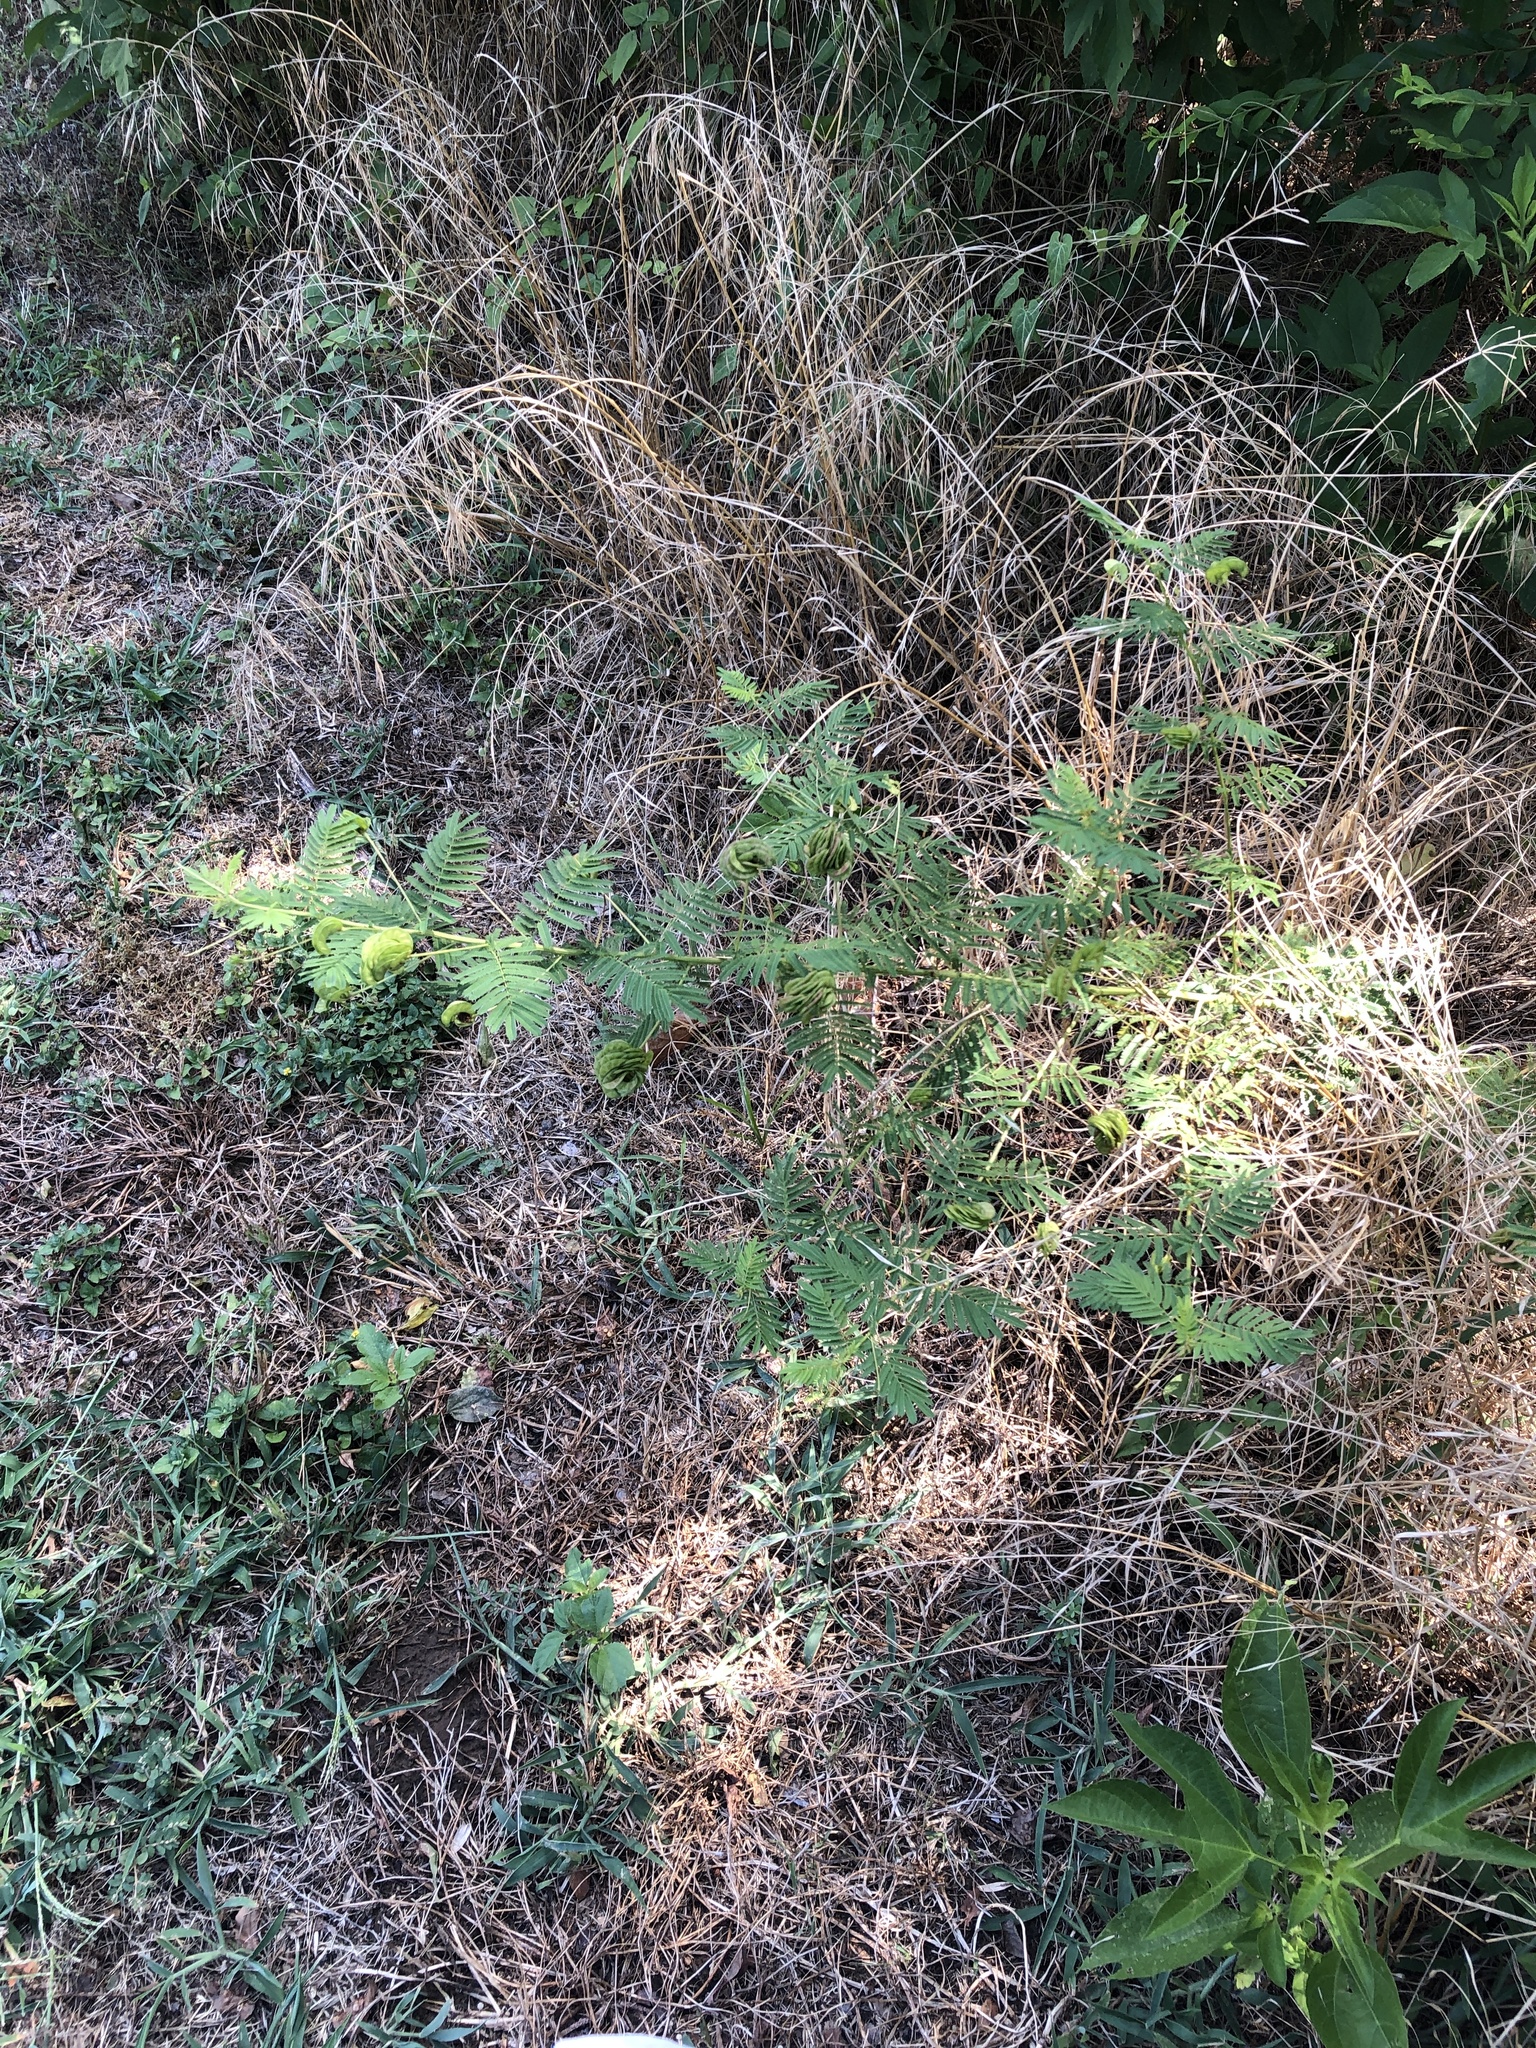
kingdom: Plantae
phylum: Tracheophyta
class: Magnoliopsida
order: Fabales
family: Fabaceae
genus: Desmanthus
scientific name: Desmanthus illinoensis
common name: Illinois bundle-flower
